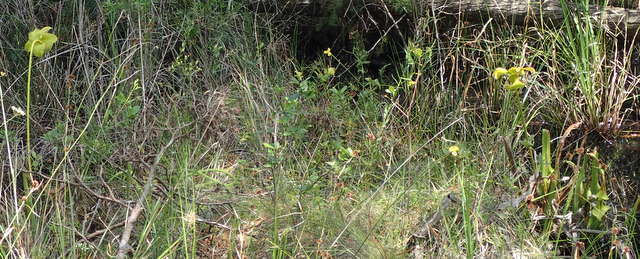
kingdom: Plantae
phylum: Tracheophyta
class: Magnoliopsida
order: Ericales
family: Sarraceniaceae
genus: Sarracenia
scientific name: Sarracenia flava
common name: Trumpets
